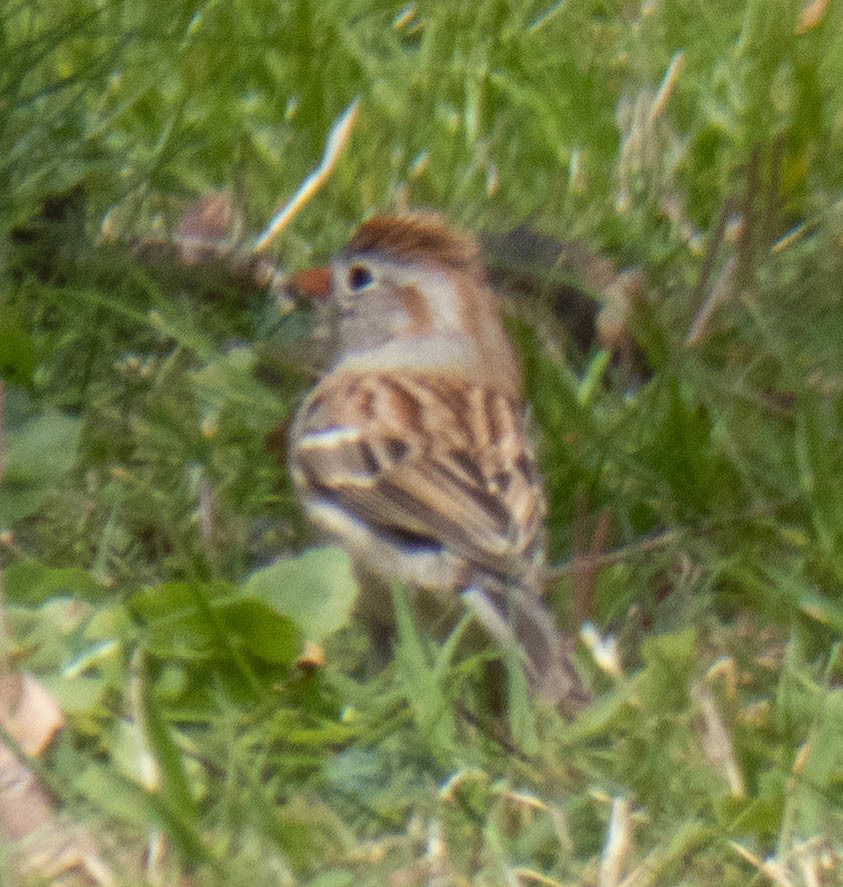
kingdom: Animalia
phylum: Chordata
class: Aves
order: Passeriformes
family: Passerellidae
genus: Spizella
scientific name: Spizella pusilla
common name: Field sparrow
